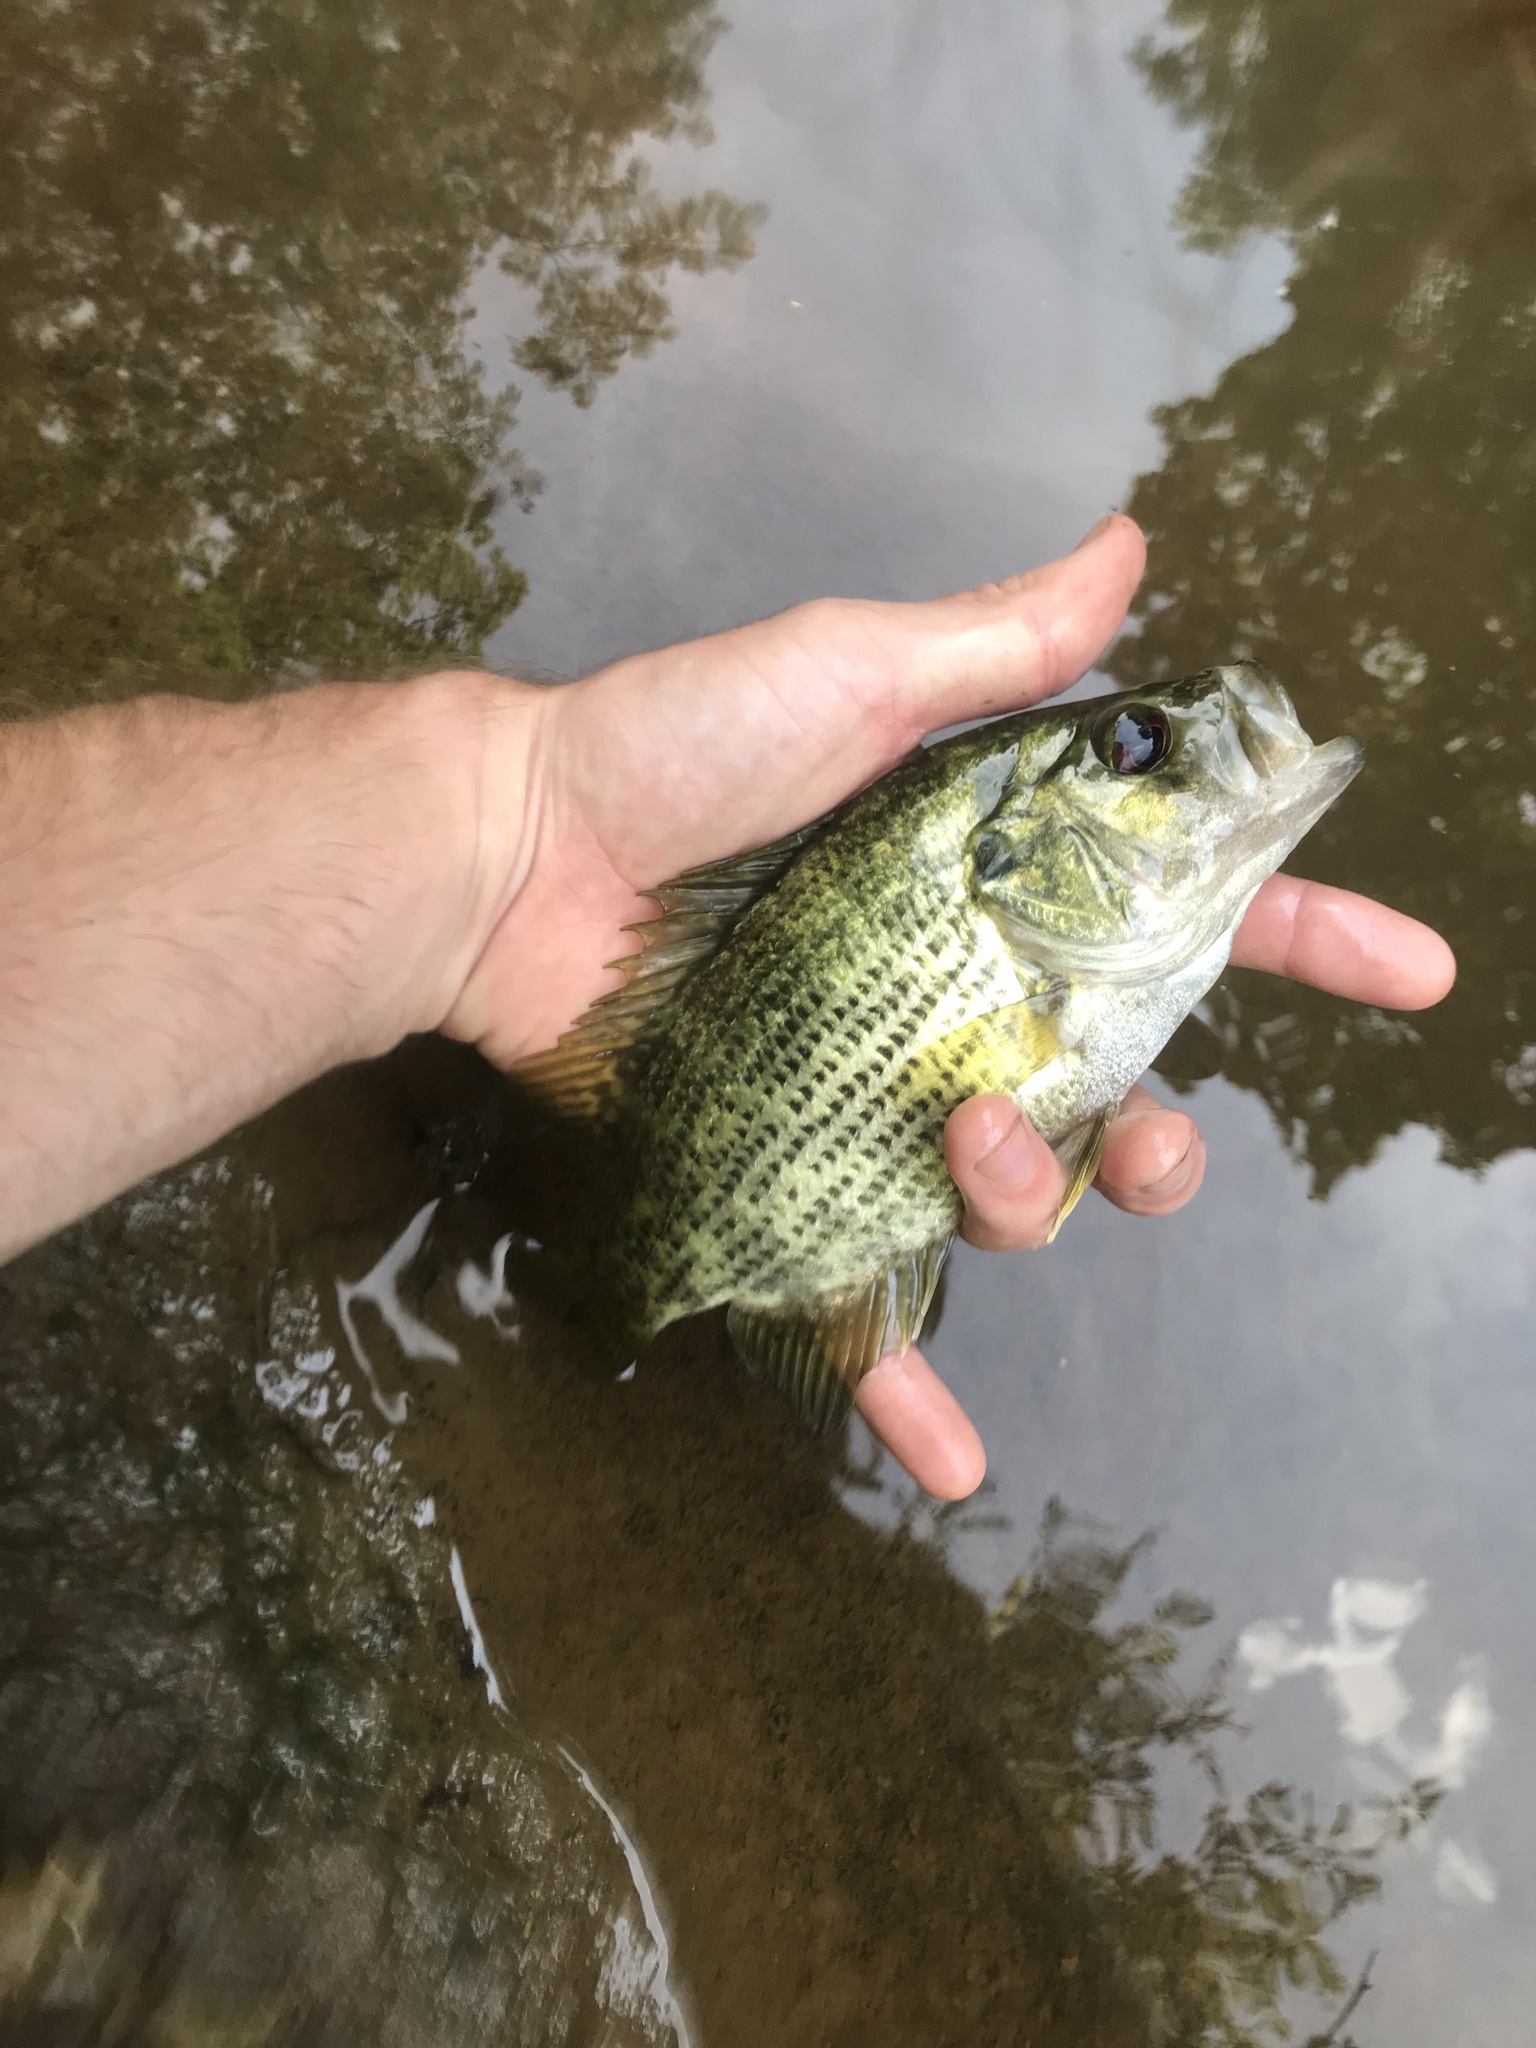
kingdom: Animalia
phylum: Chordata
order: Perciformes
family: Centrarchidae
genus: Ambloplites
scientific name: Ambloplites cavifrons
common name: Roanoke bass
